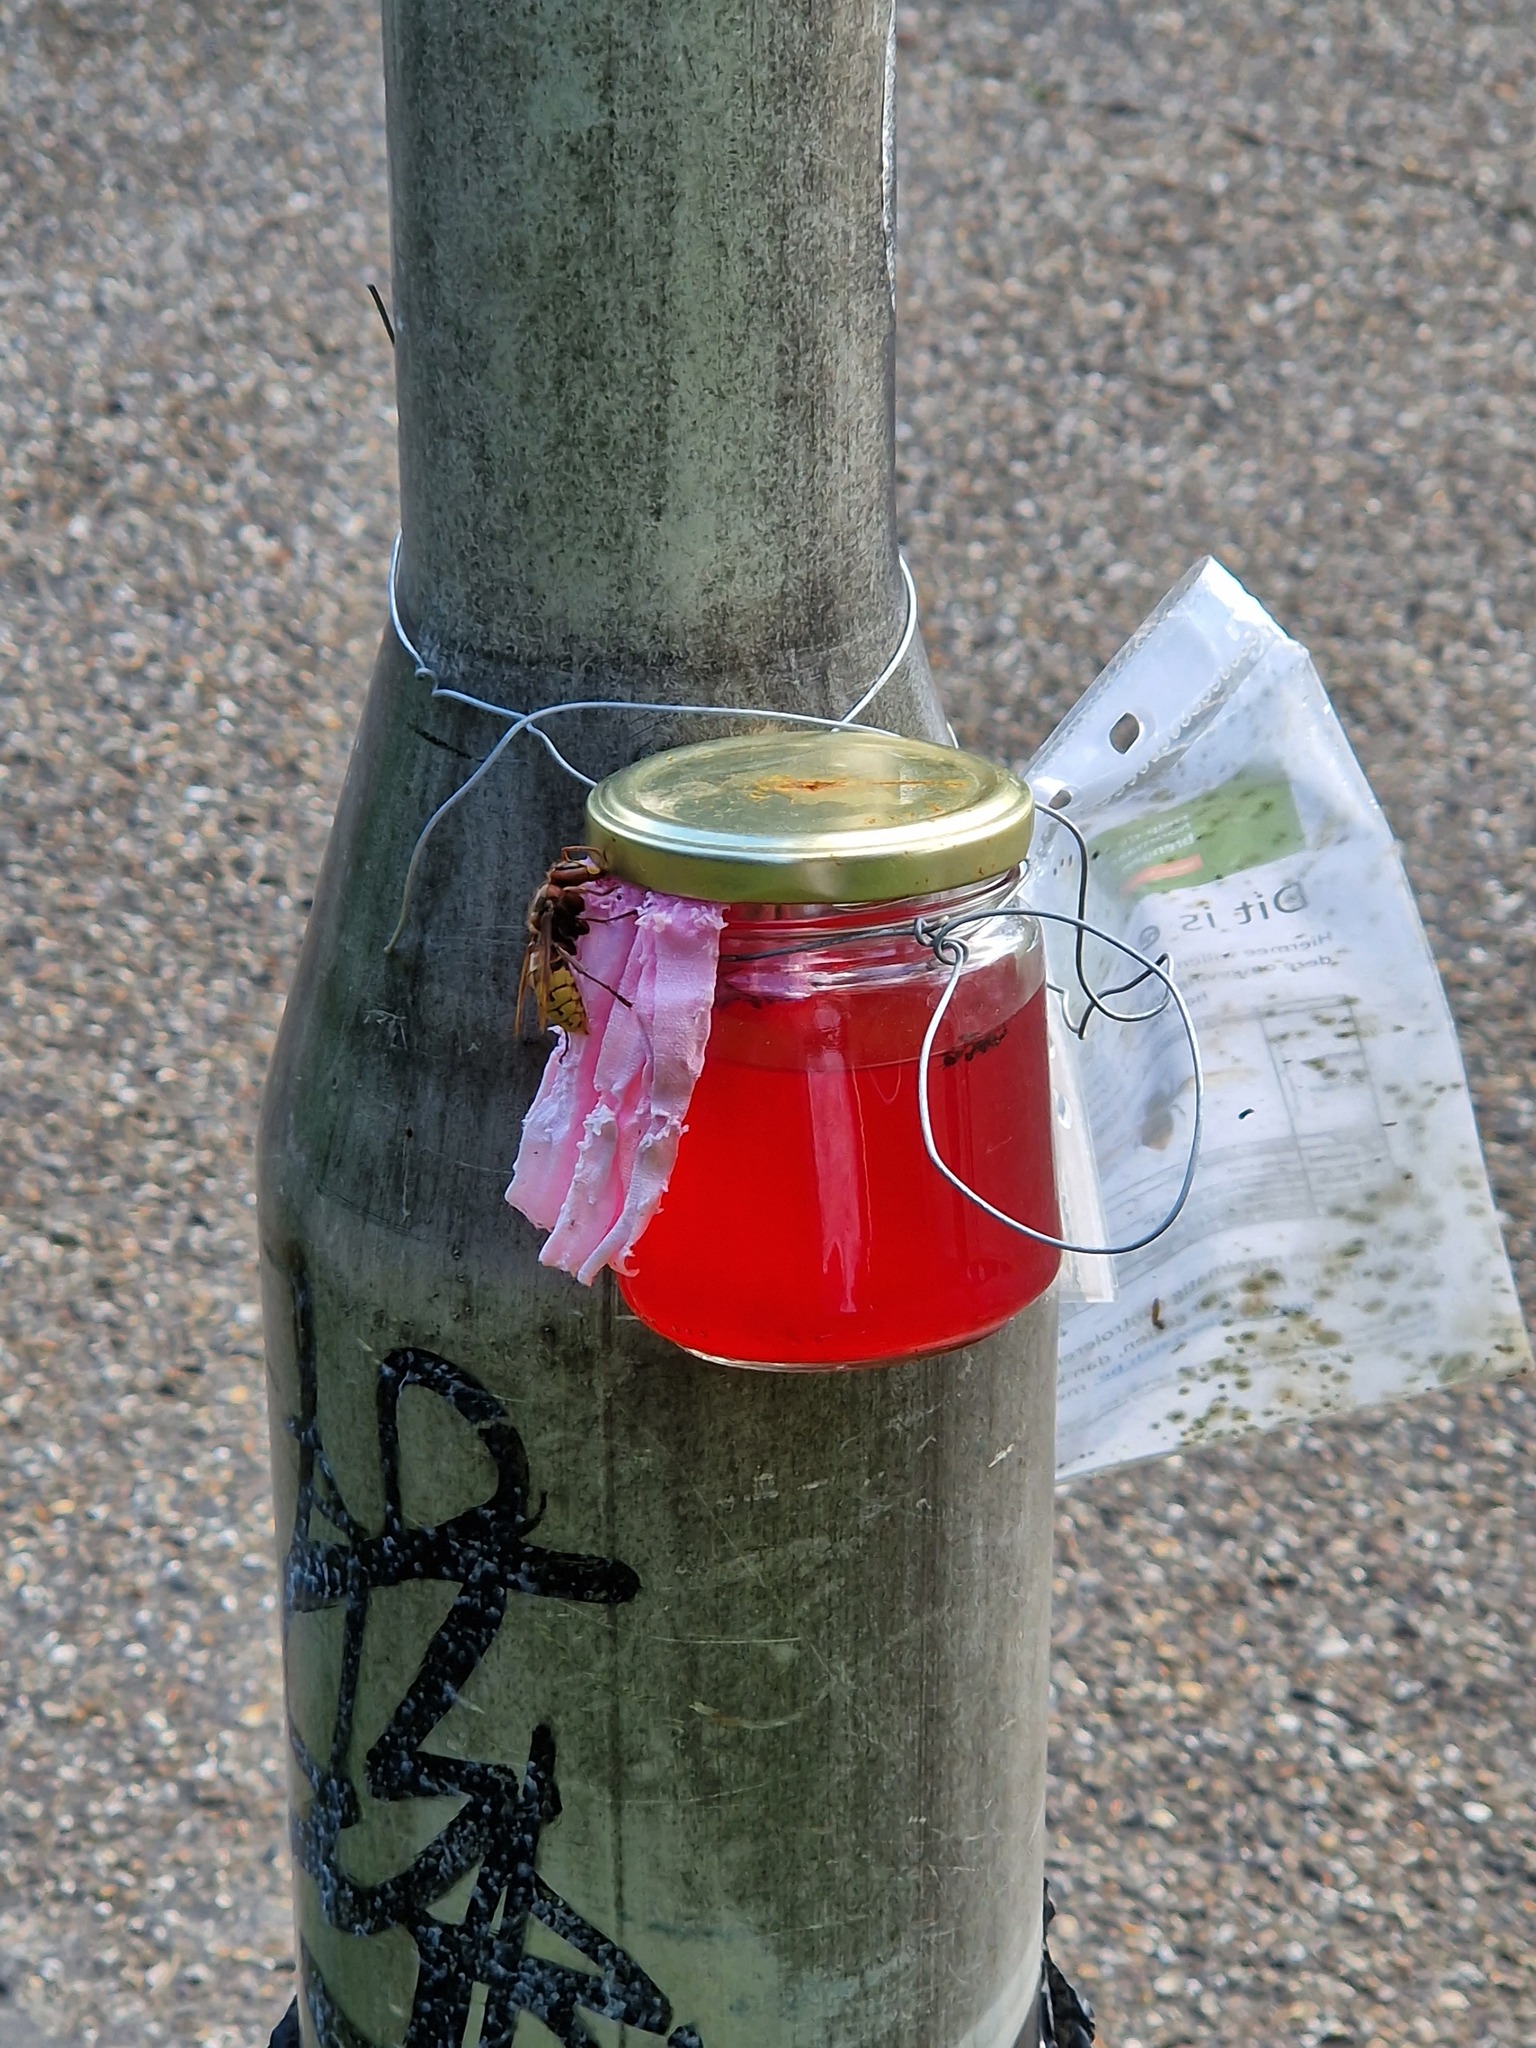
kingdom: Animalia
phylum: Arthropoda
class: Insecta
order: Hymenoptera
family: Vespidae
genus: Vespa
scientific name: Vespa crabro
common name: Hornet
